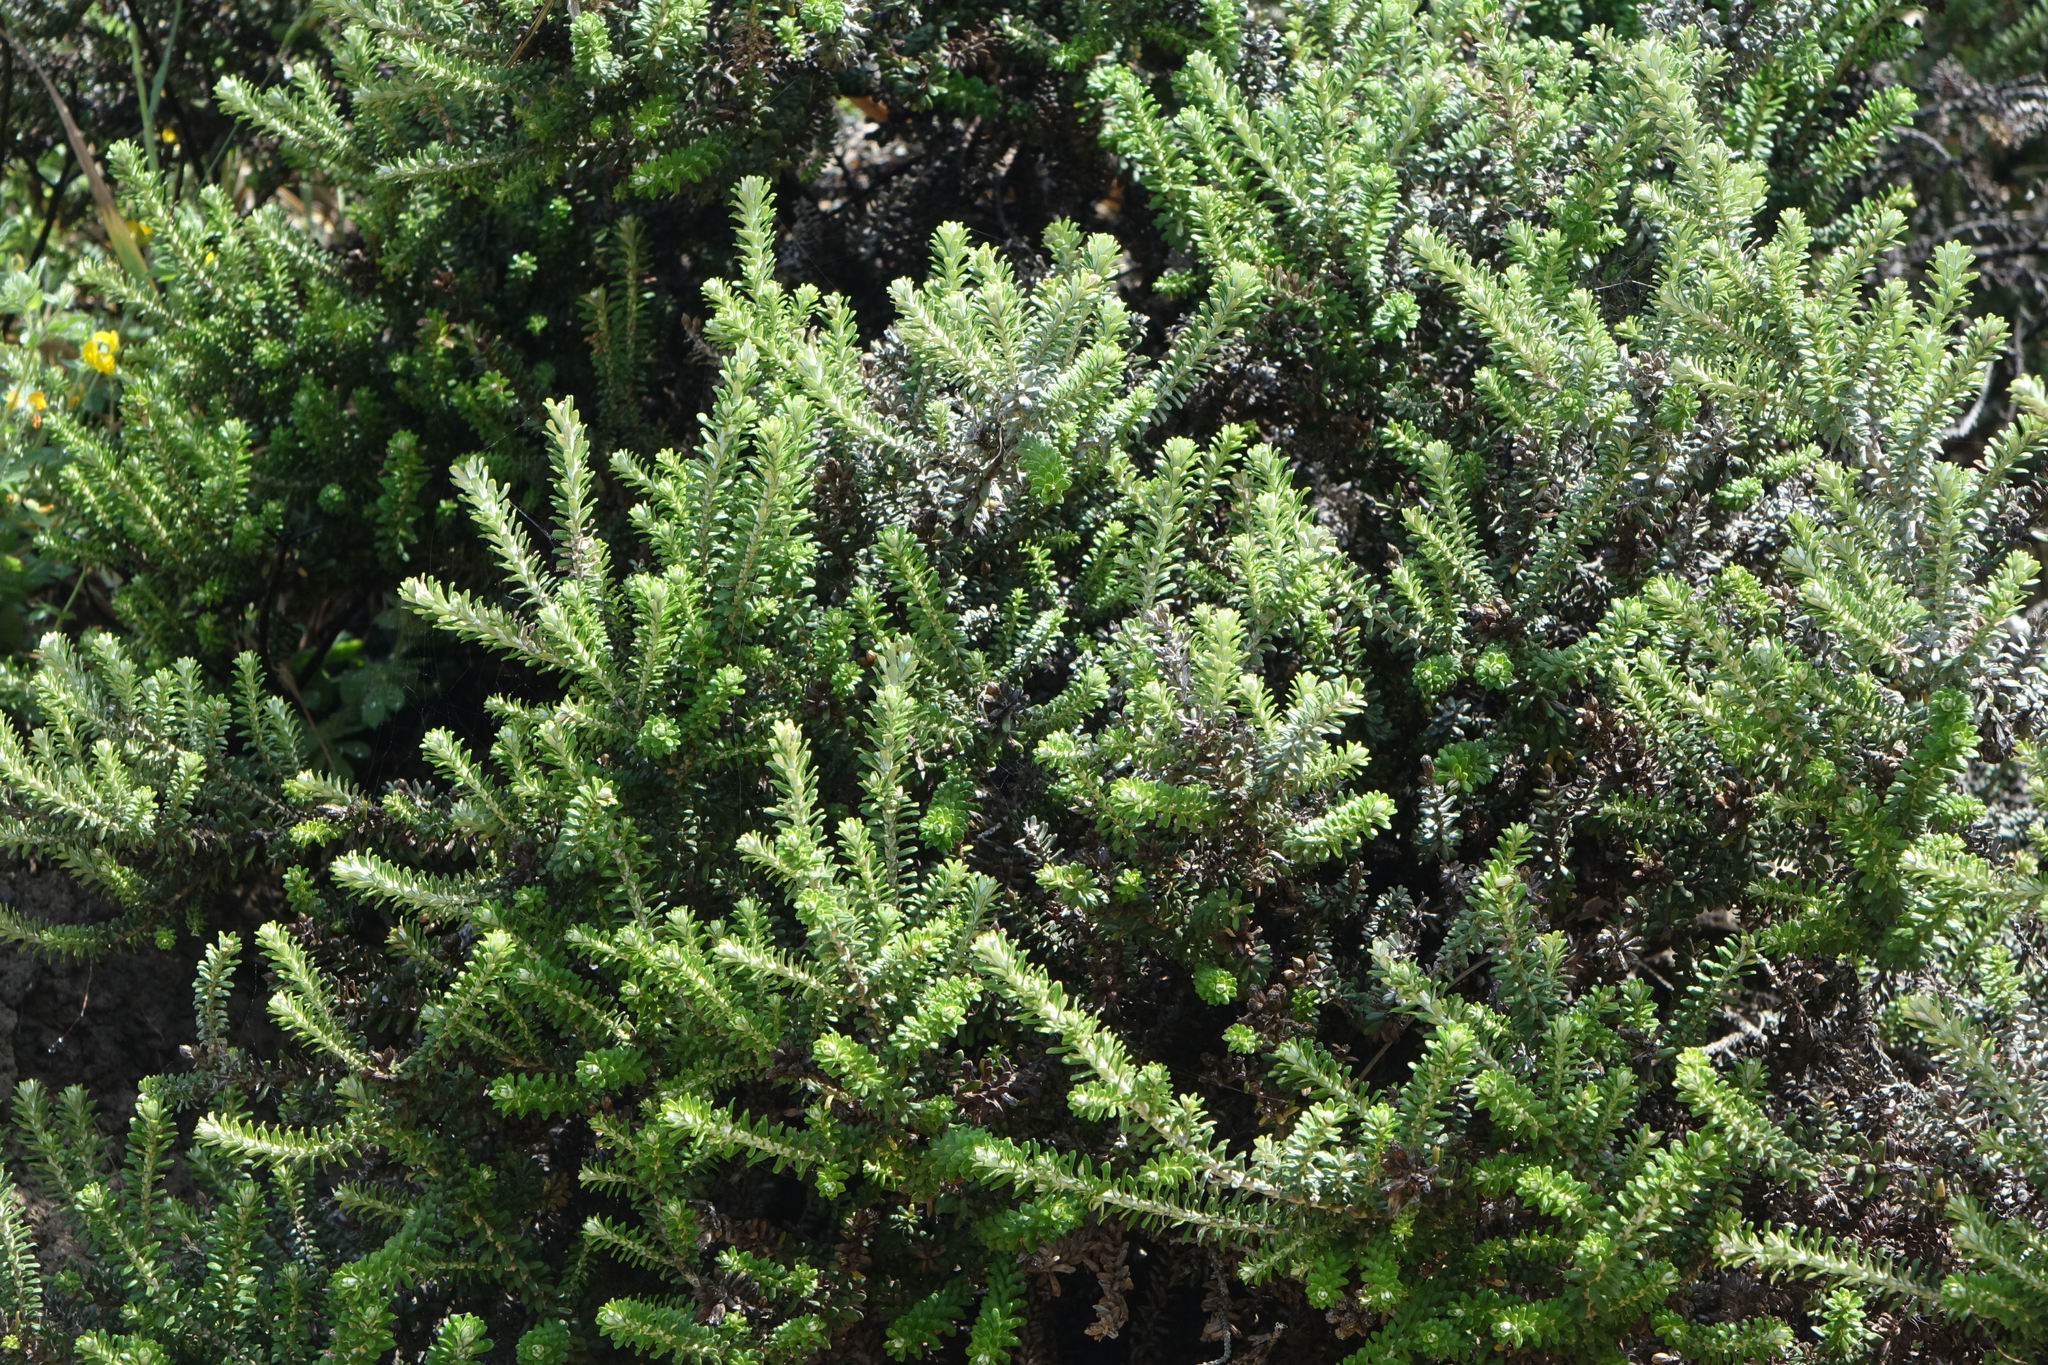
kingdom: Plantae
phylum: Tracheophyta
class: Magnoliopsida
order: Asterales
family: Asteraceae
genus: Ozothamnus
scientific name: Ozothamnus leptophyllus
